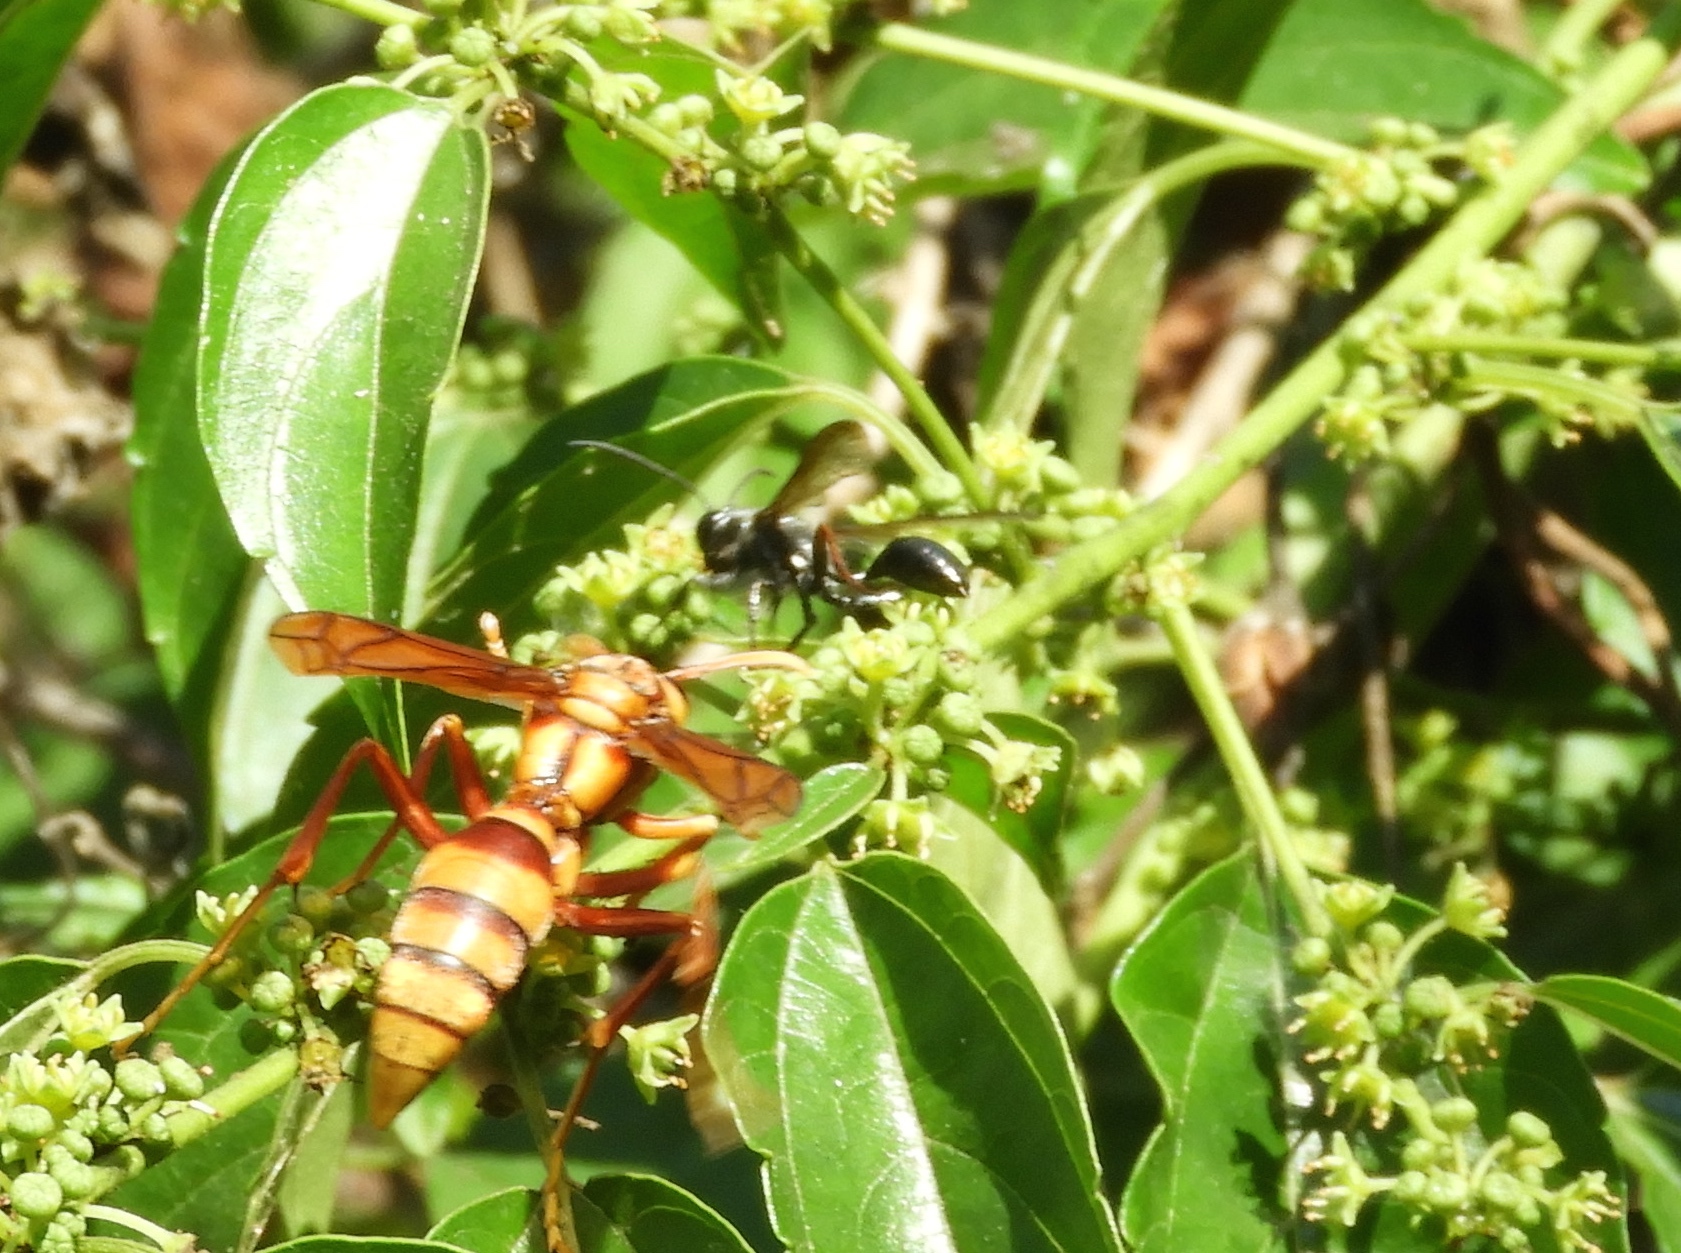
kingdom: Animalia
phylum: Arthropoda
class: Insecta
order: Hymenoptera
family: Eumenidae
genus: Polistes
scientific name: Polistes carnifex
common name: Paper wasp
